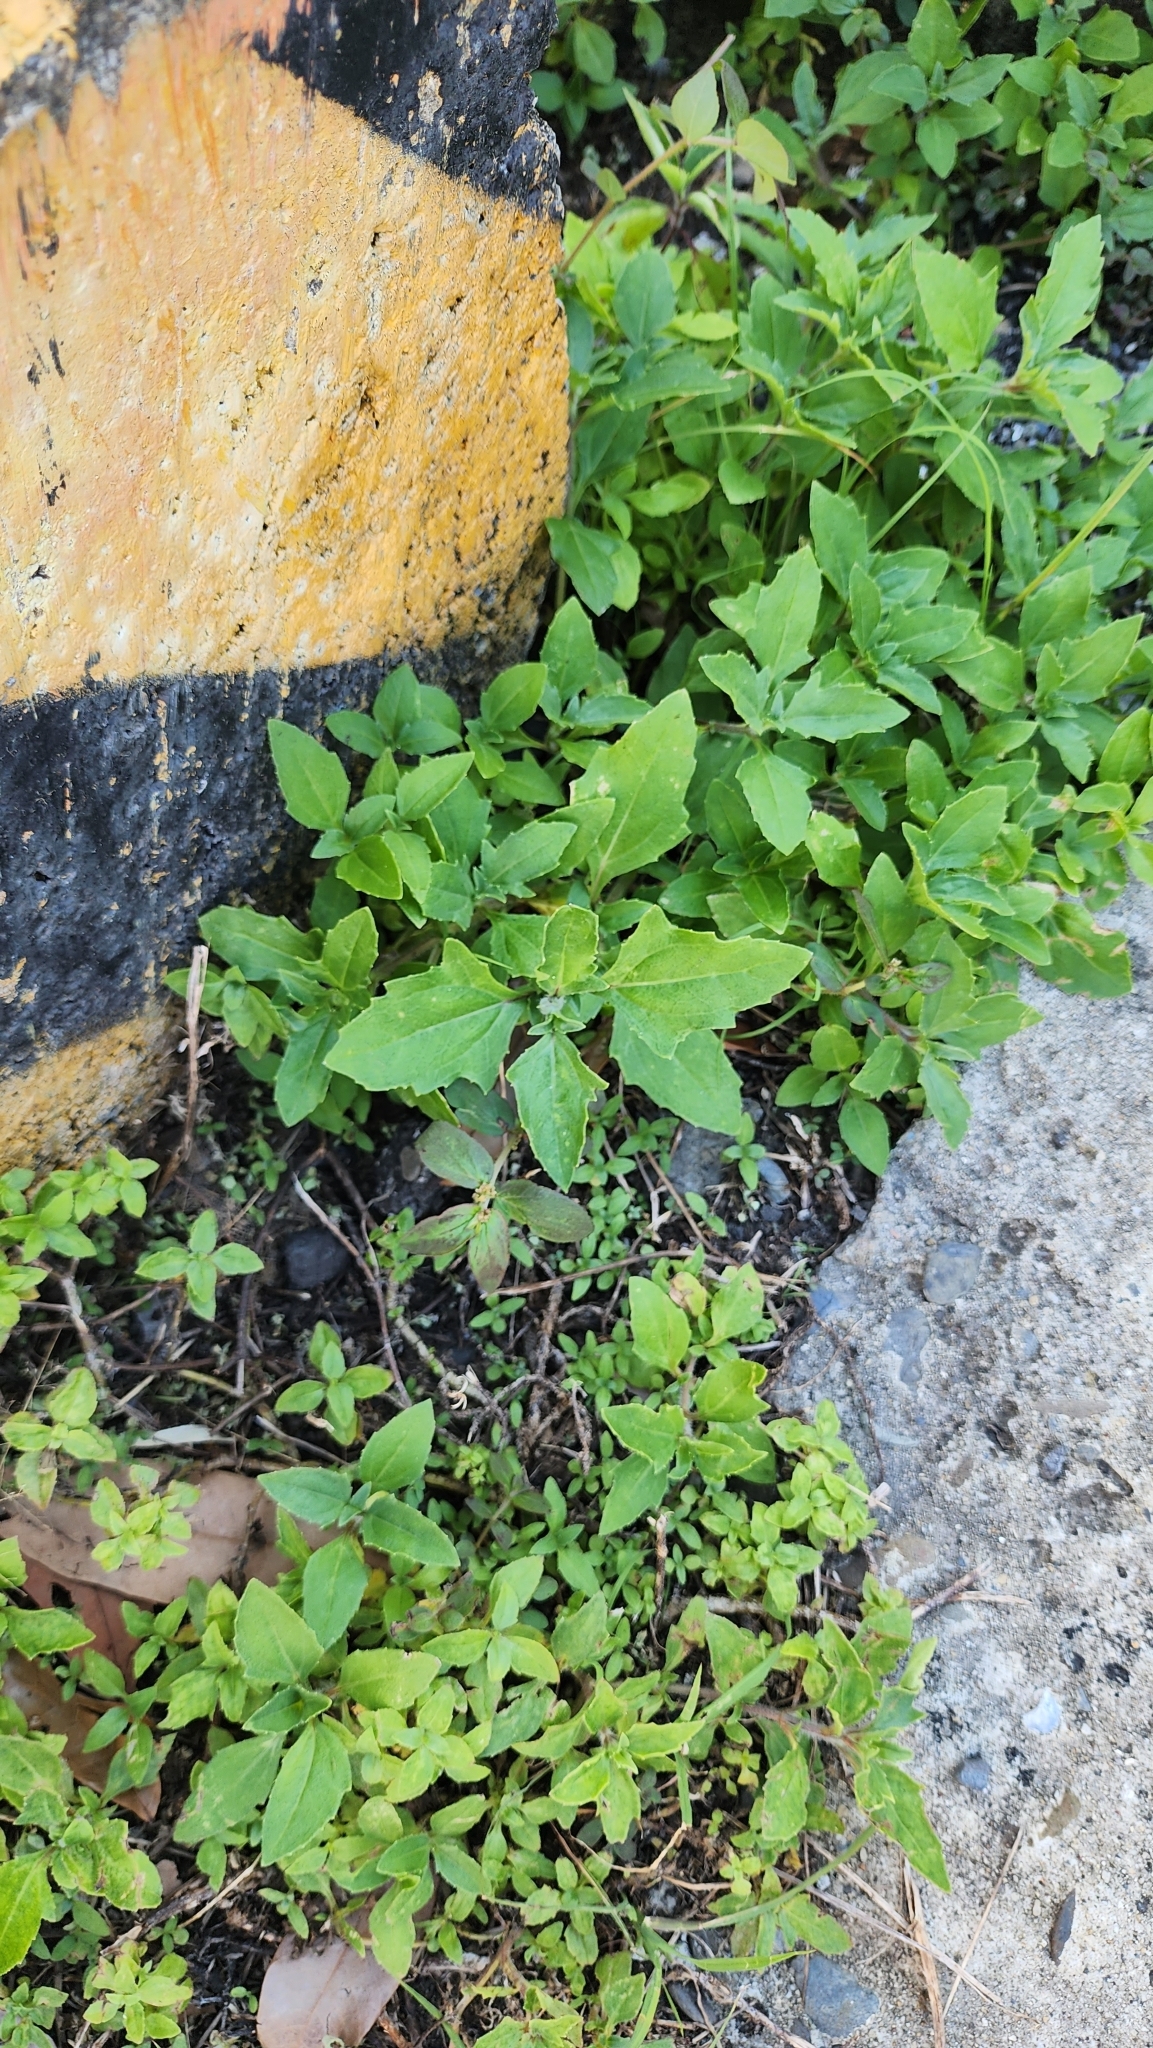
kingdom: Plantae
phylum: Tracheophyta
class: Magnoliopsida
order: Asterales
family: Asteraceae
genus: Tridax
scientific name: Tridax procumbens
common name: Coatbuttons
